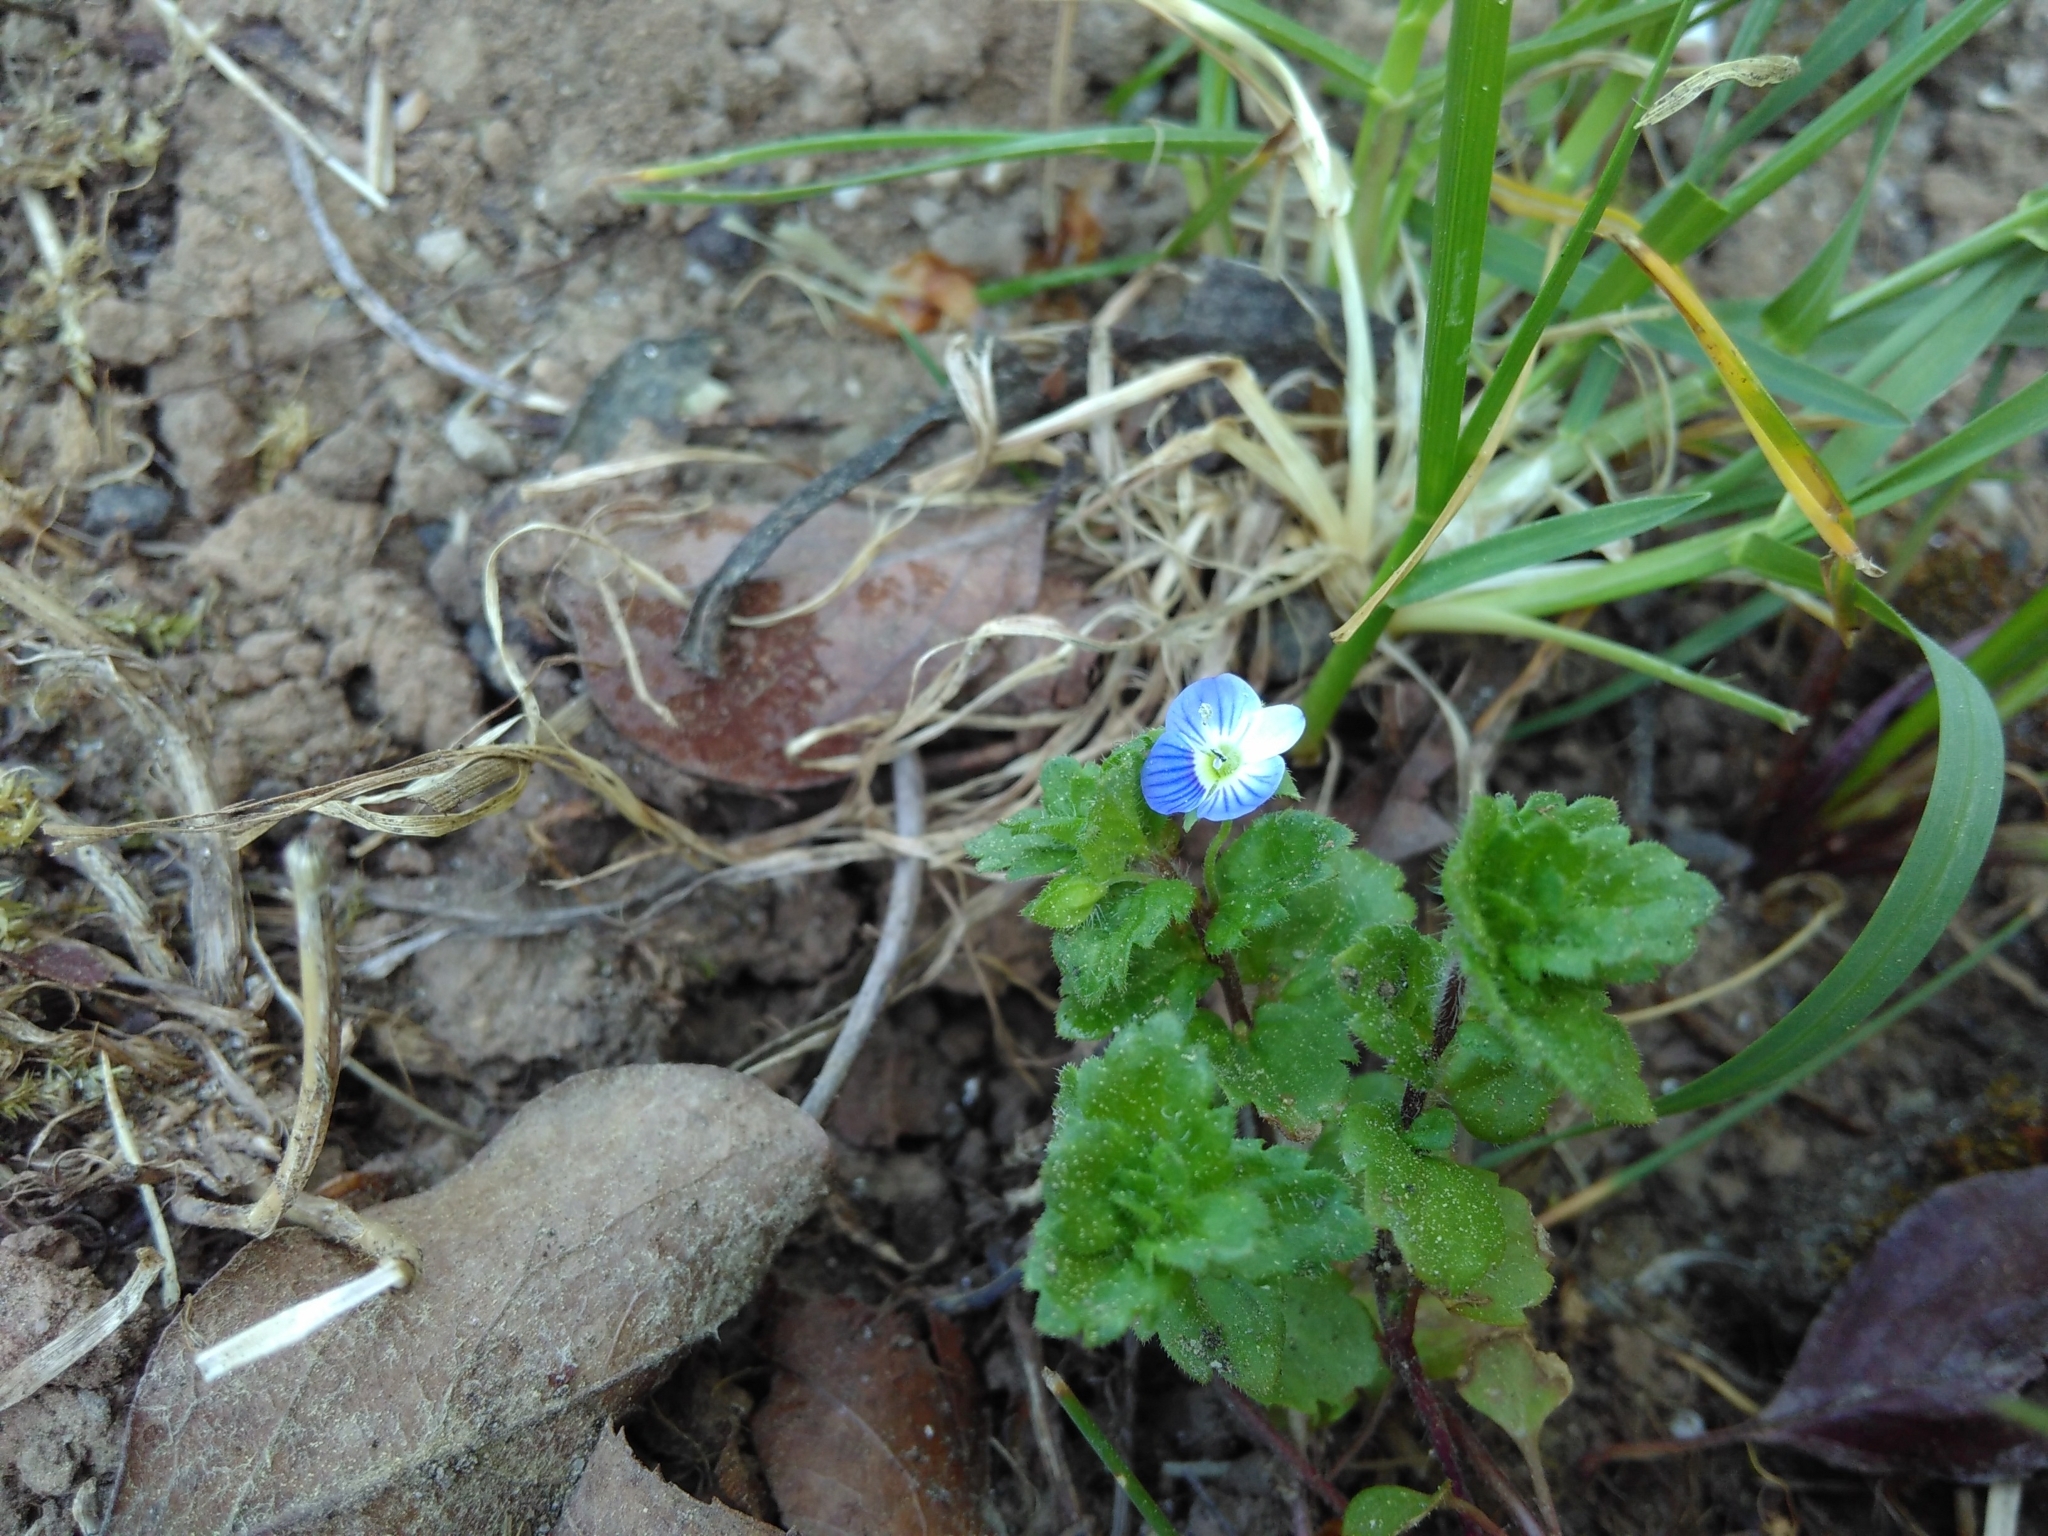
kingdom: Plantae
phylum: Tracheophyta
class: Magnoliopsida
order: Lamiales
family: Plantaginaceae
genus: Veronica
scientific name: Veronica persica
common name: Common field-speedwell
